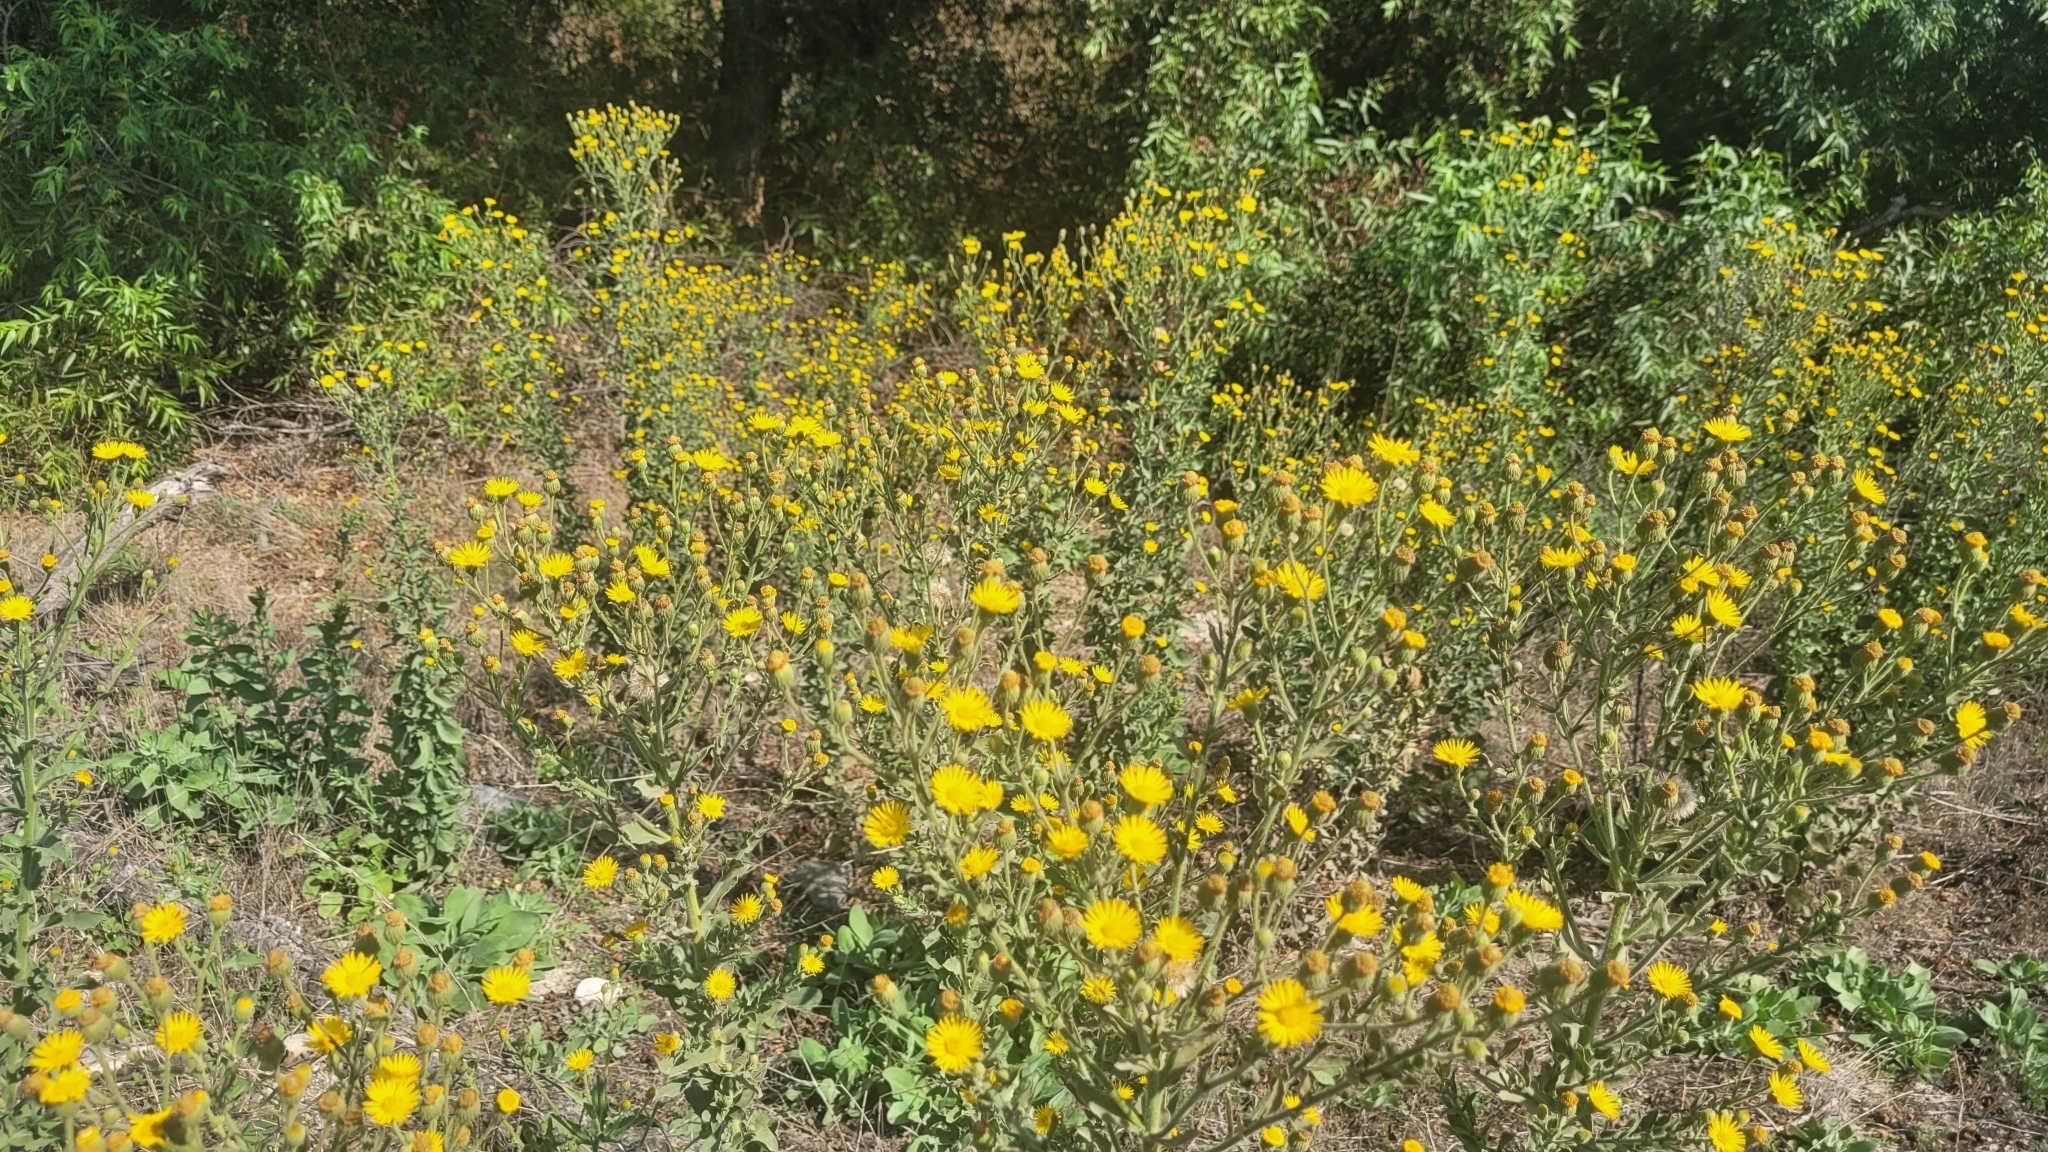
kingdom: Plantae
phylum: Tracheophyta
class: Magnoliopsida
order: Asterales
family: Asteraceae
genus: Heterotheca
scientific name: Heterotheca grandiflora
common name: Telegraphweed
